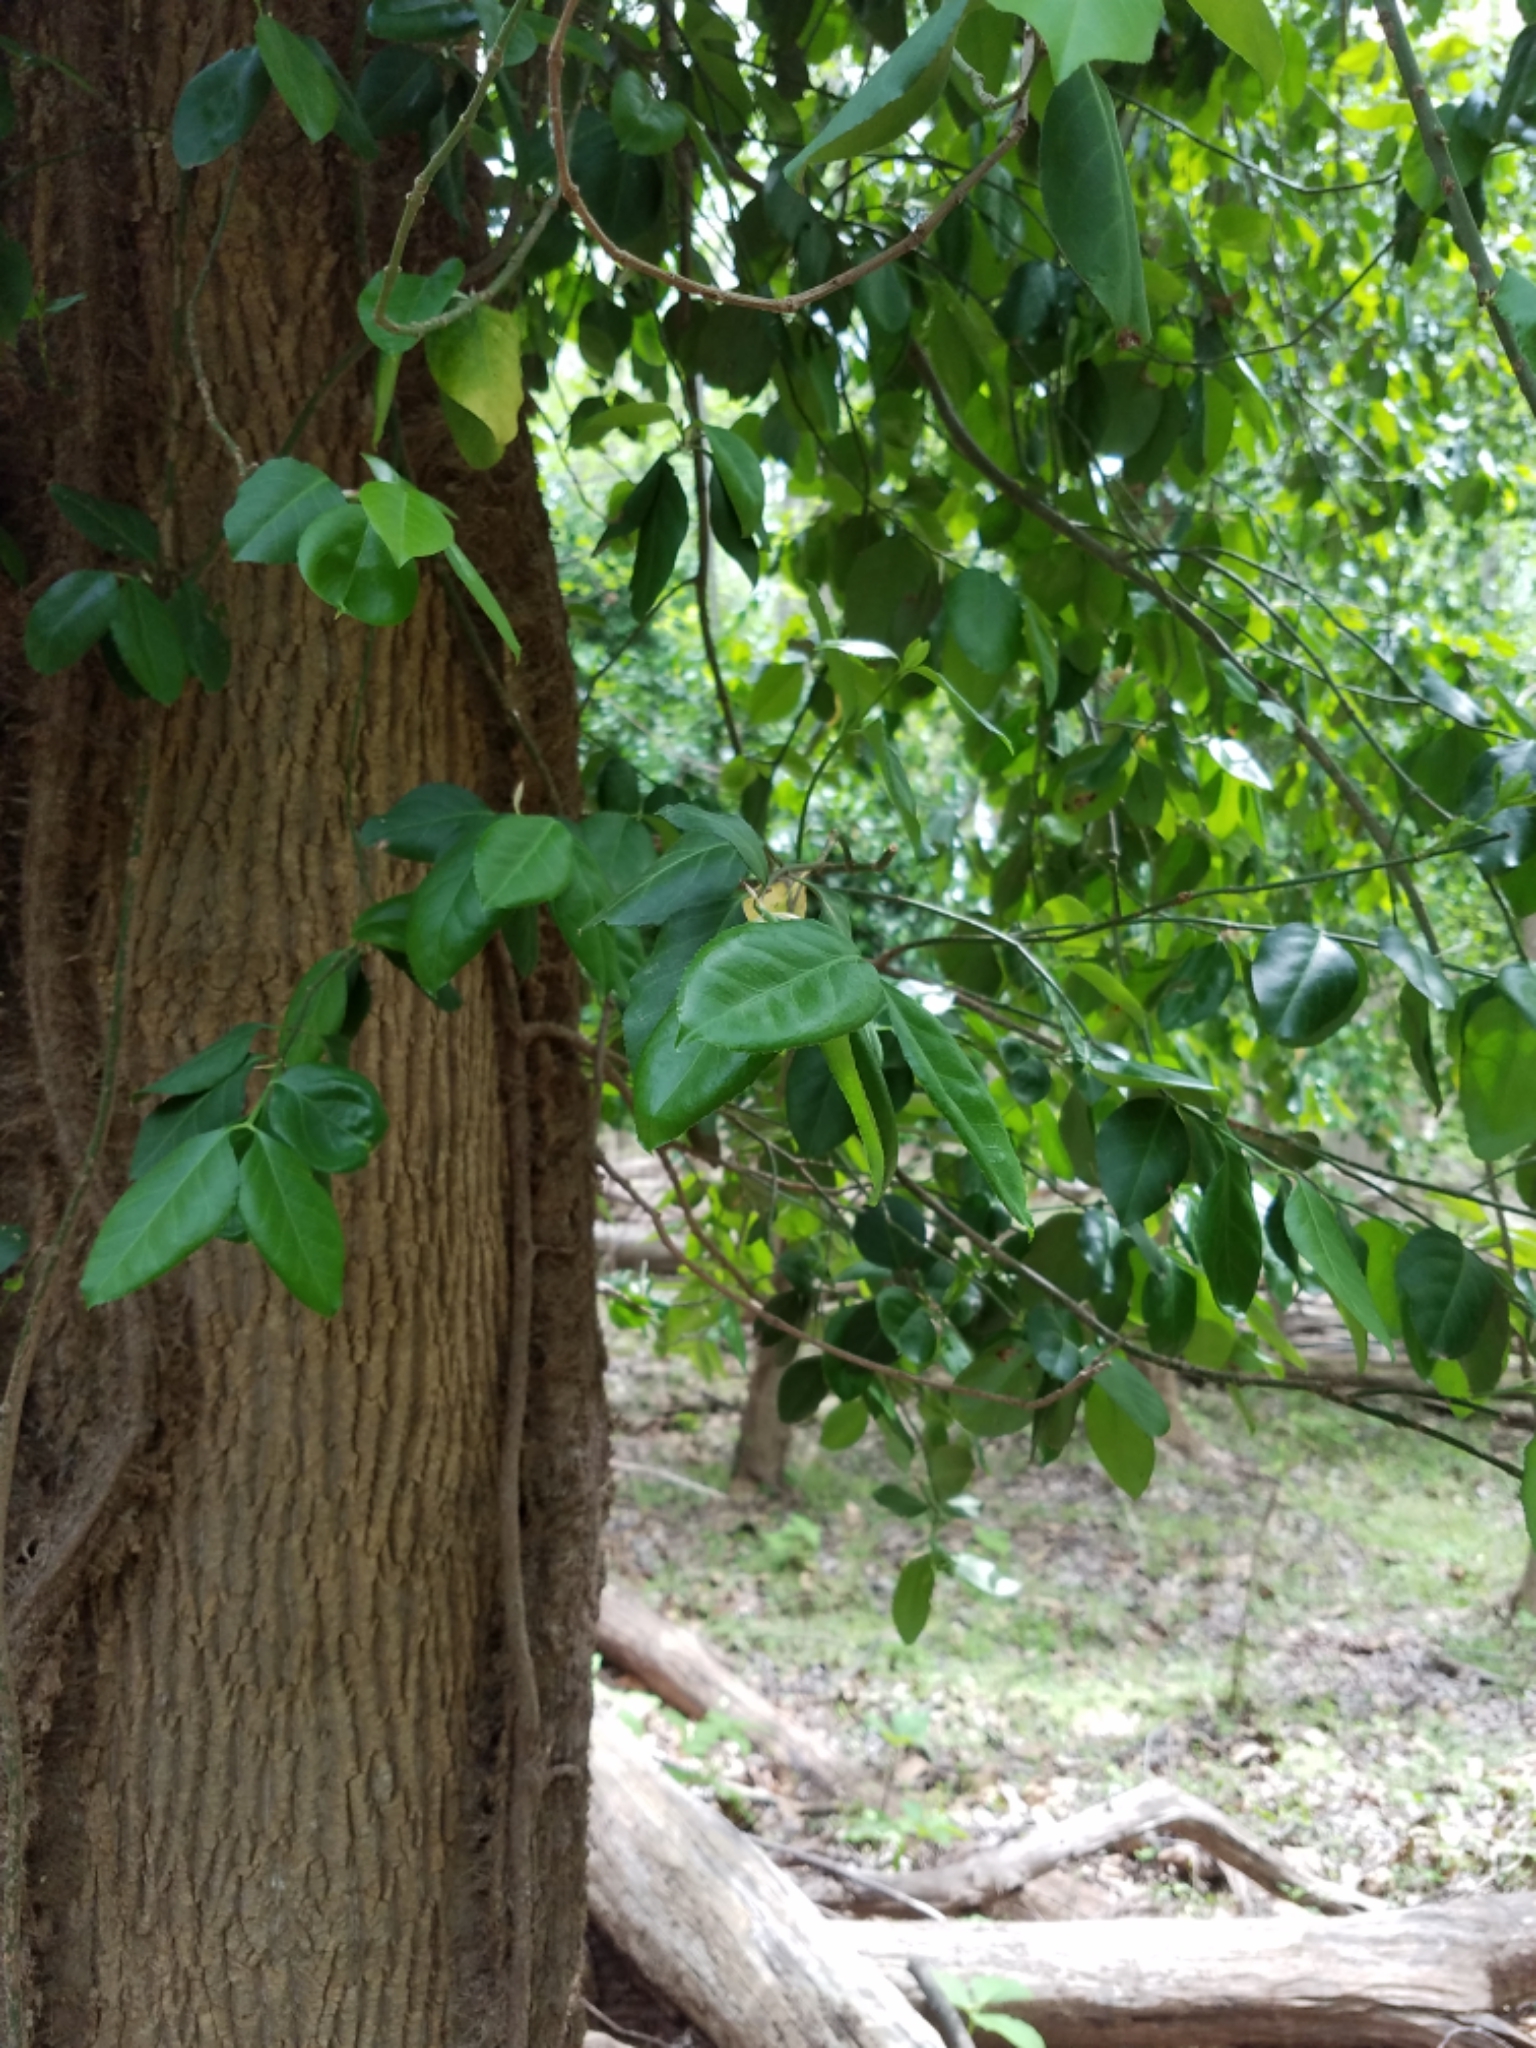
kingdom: Plantae
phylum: Tracheophyta
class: Magnoliopsida
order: Celastrales
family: Celastraceae
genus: Euonymus
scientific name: Euonymus fortunei
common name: Climbing euonymus
